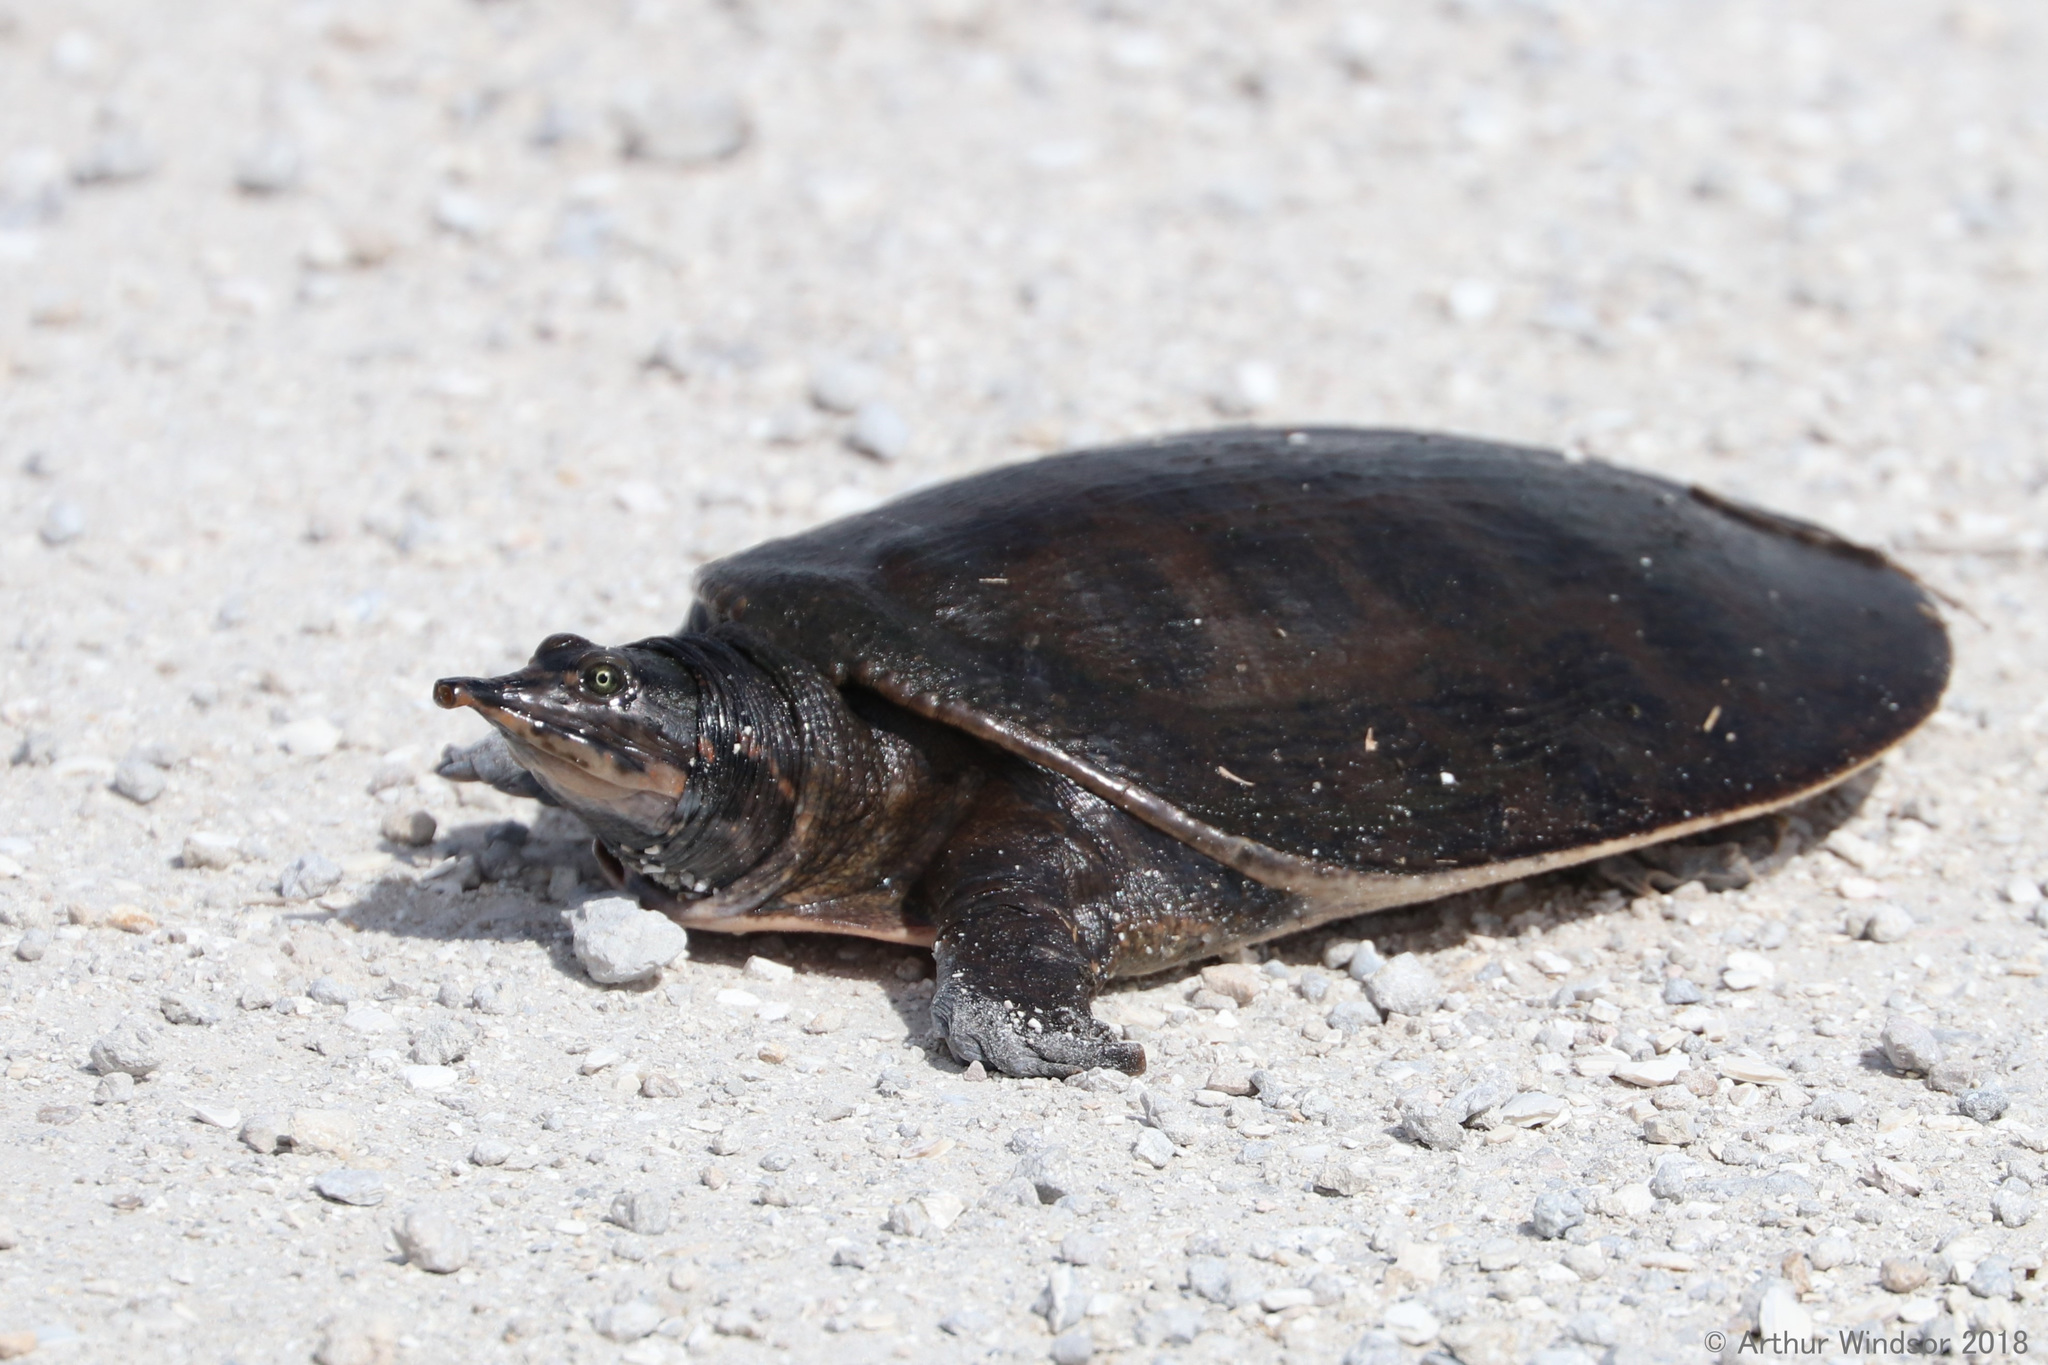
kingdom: Animalia
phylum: Chordata
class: Testudines
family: Trionychidae
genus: Apalone
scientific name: Apalone ferox
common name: Florida softshell turtle
